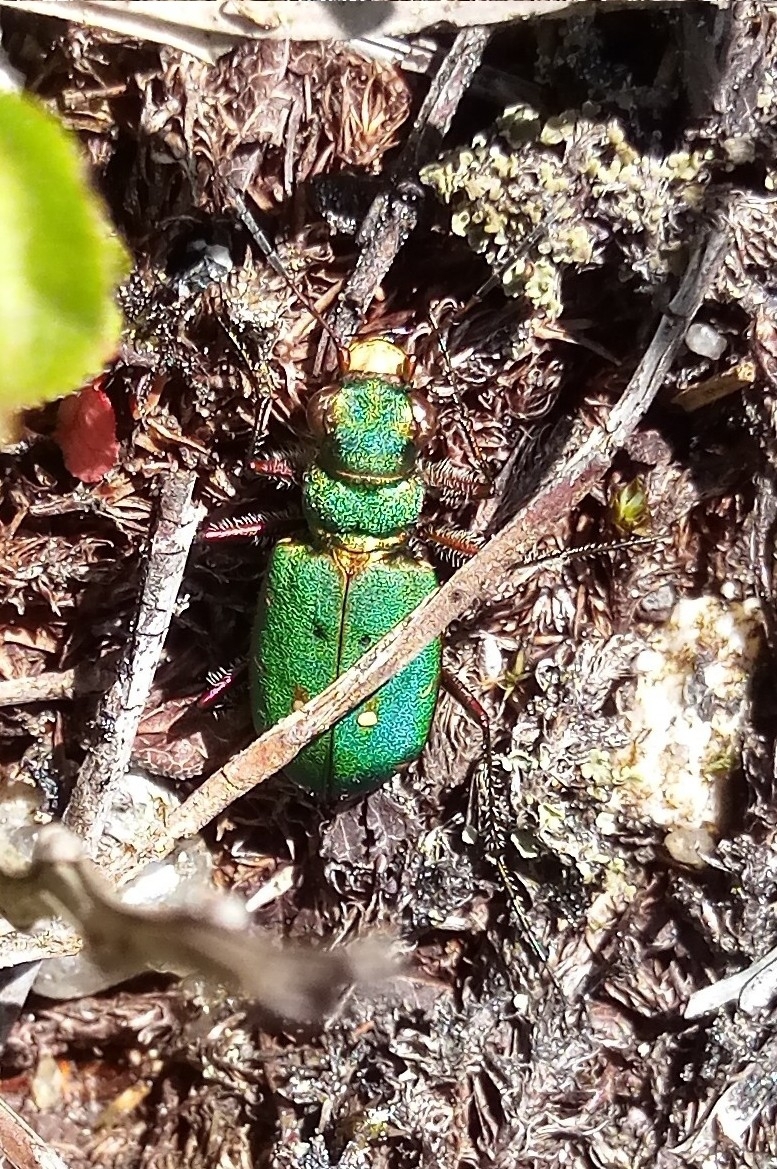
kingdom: Animalia
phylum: Arthropoda
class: Insecta
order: Coleoptera
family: Carabidae
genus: Cicindela
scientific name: Cicindela campestris
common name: Common tiger beetle
